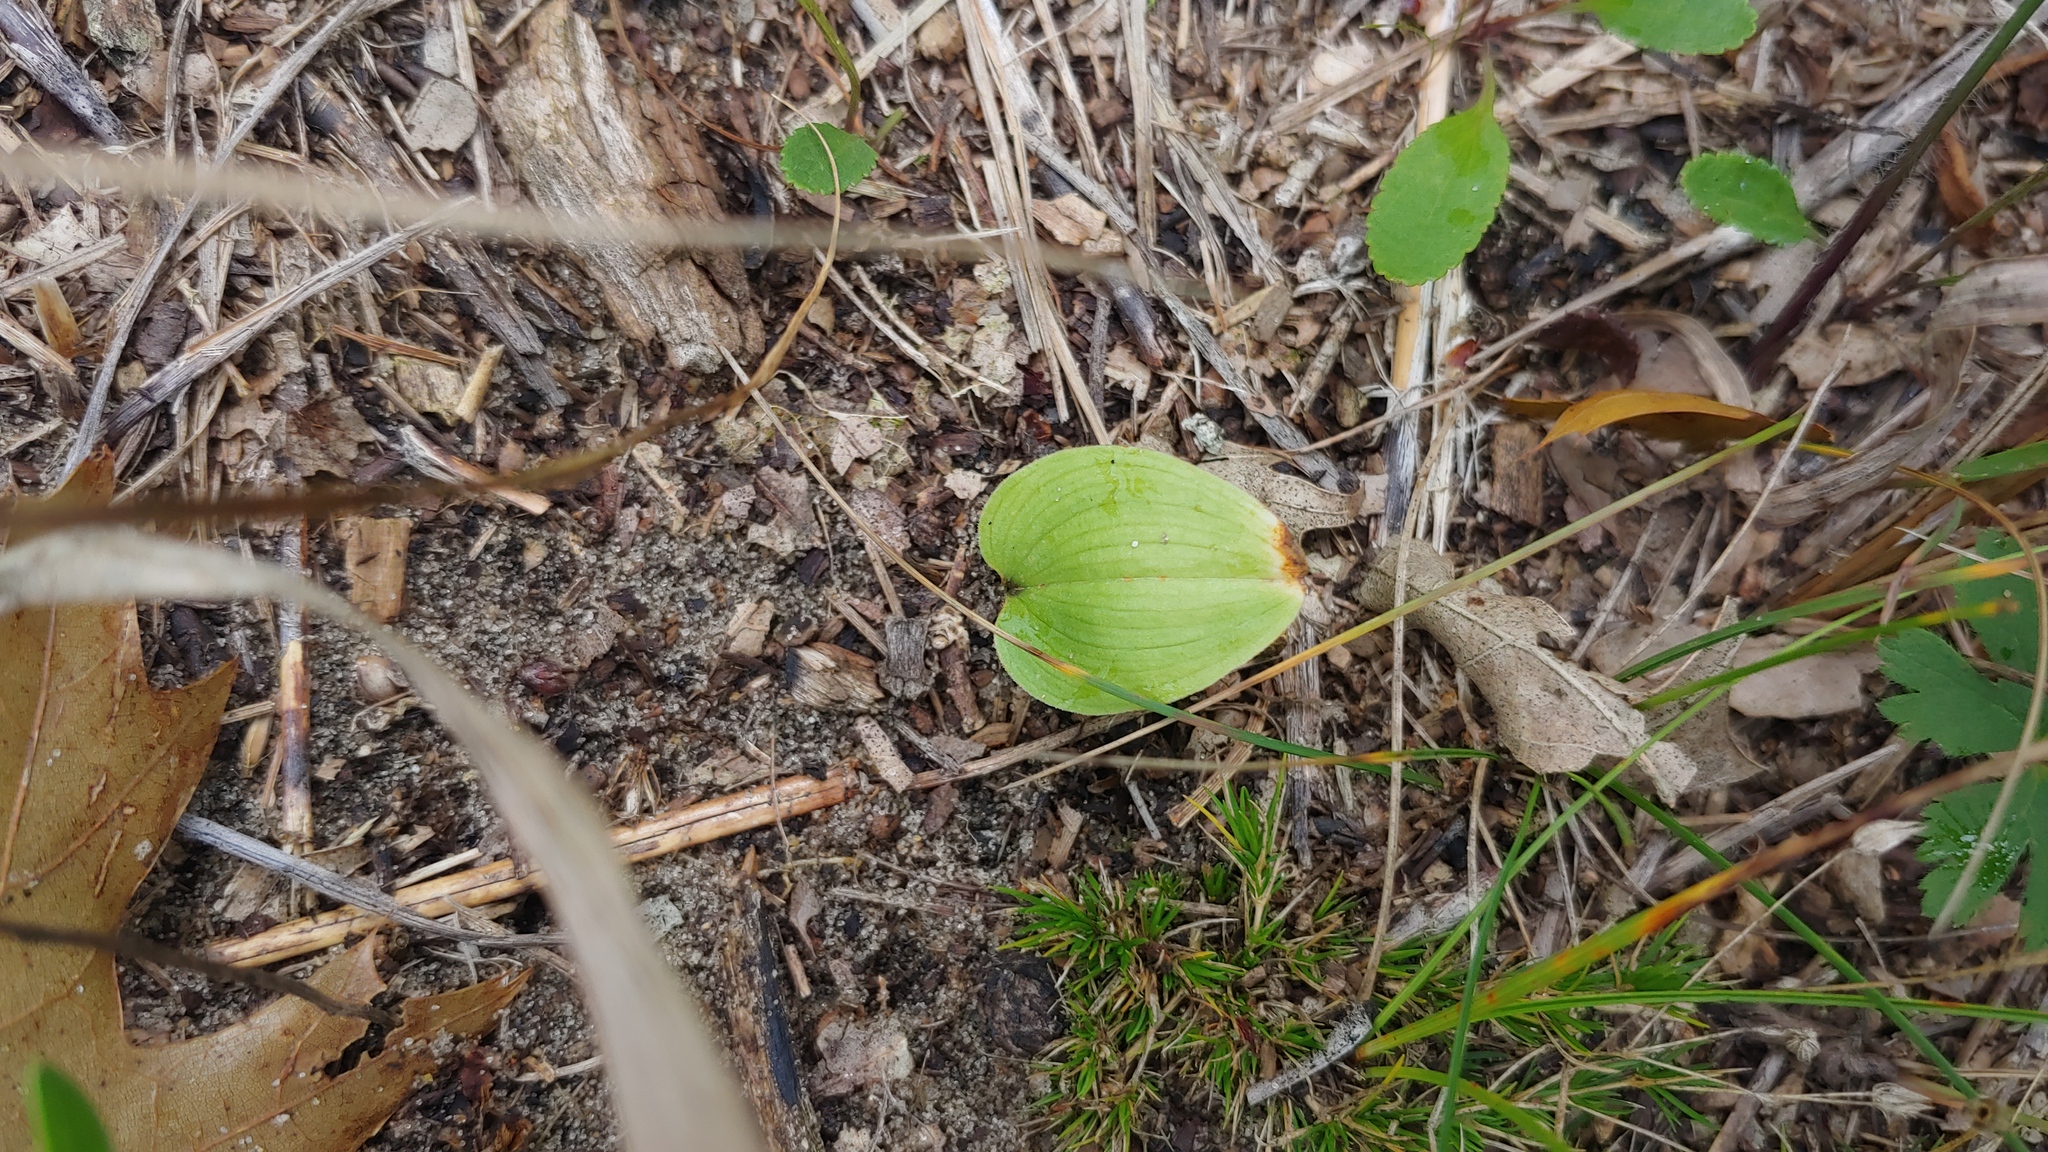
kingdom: Plantae
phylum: Tracheophyta
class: Liliopsida
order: Asparagales
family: Asparagaceae
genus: Maianthemum
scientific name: Maianthemum canadense
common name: False lily-of-the-valley
